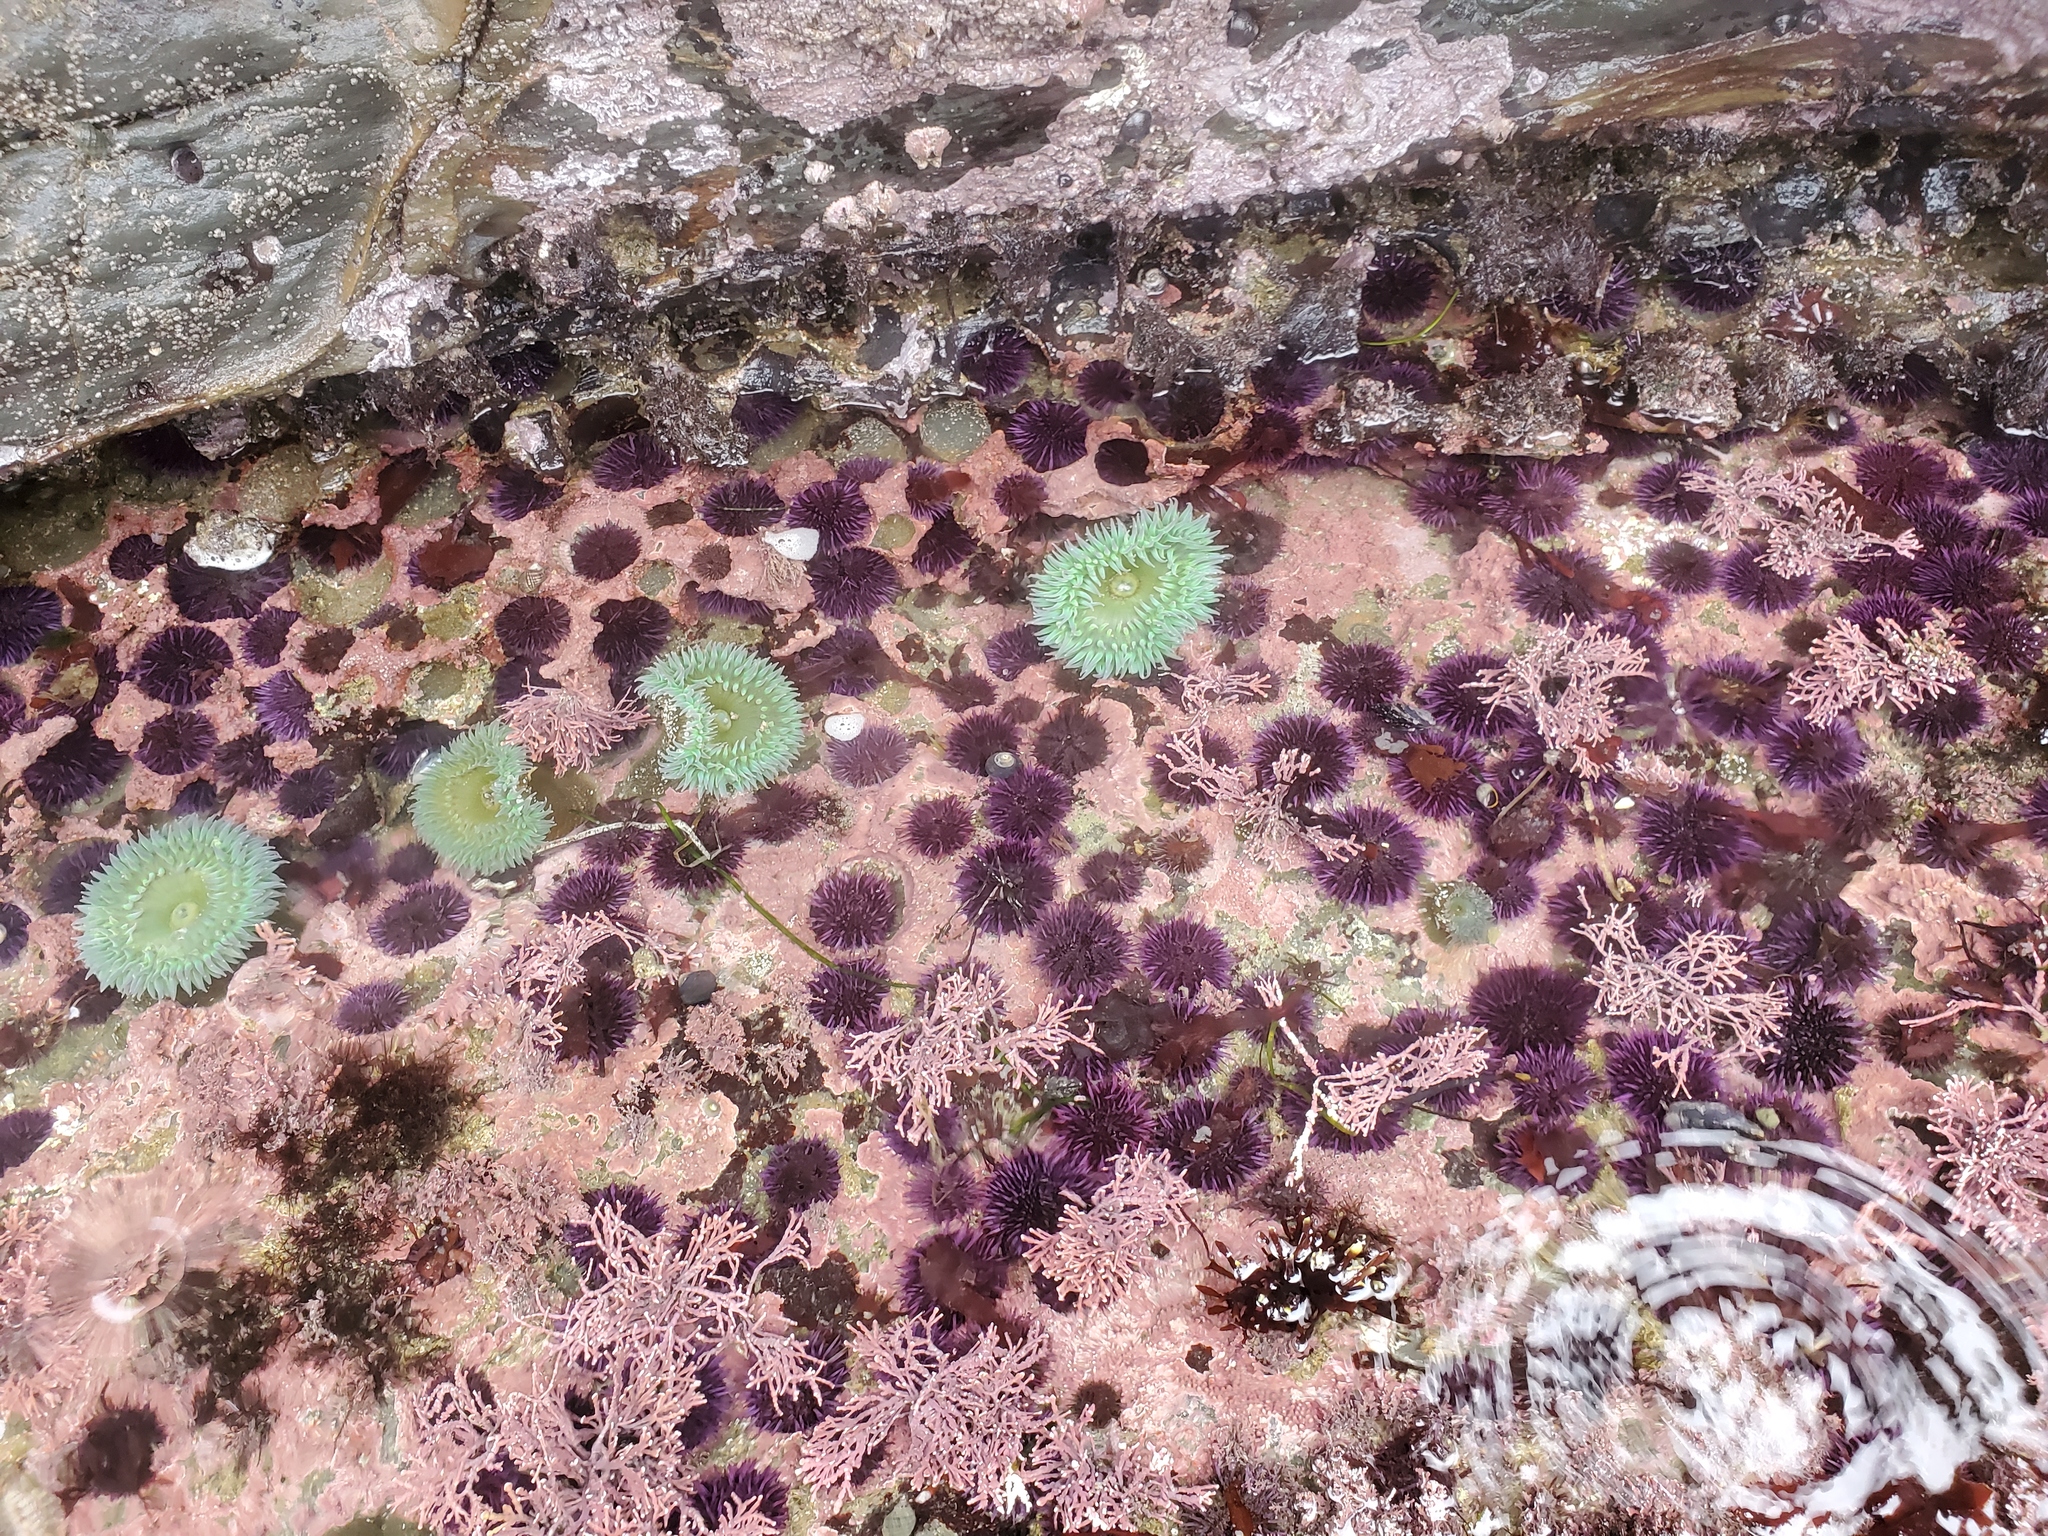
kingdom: Animalia
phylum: Echinodermata
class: Echinoidea
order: Camarodonta
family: Strongylocentrotidae
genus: Strongylocentrotus
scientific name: Strongylocentrotus purpuratus
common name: Purple sea urchin
